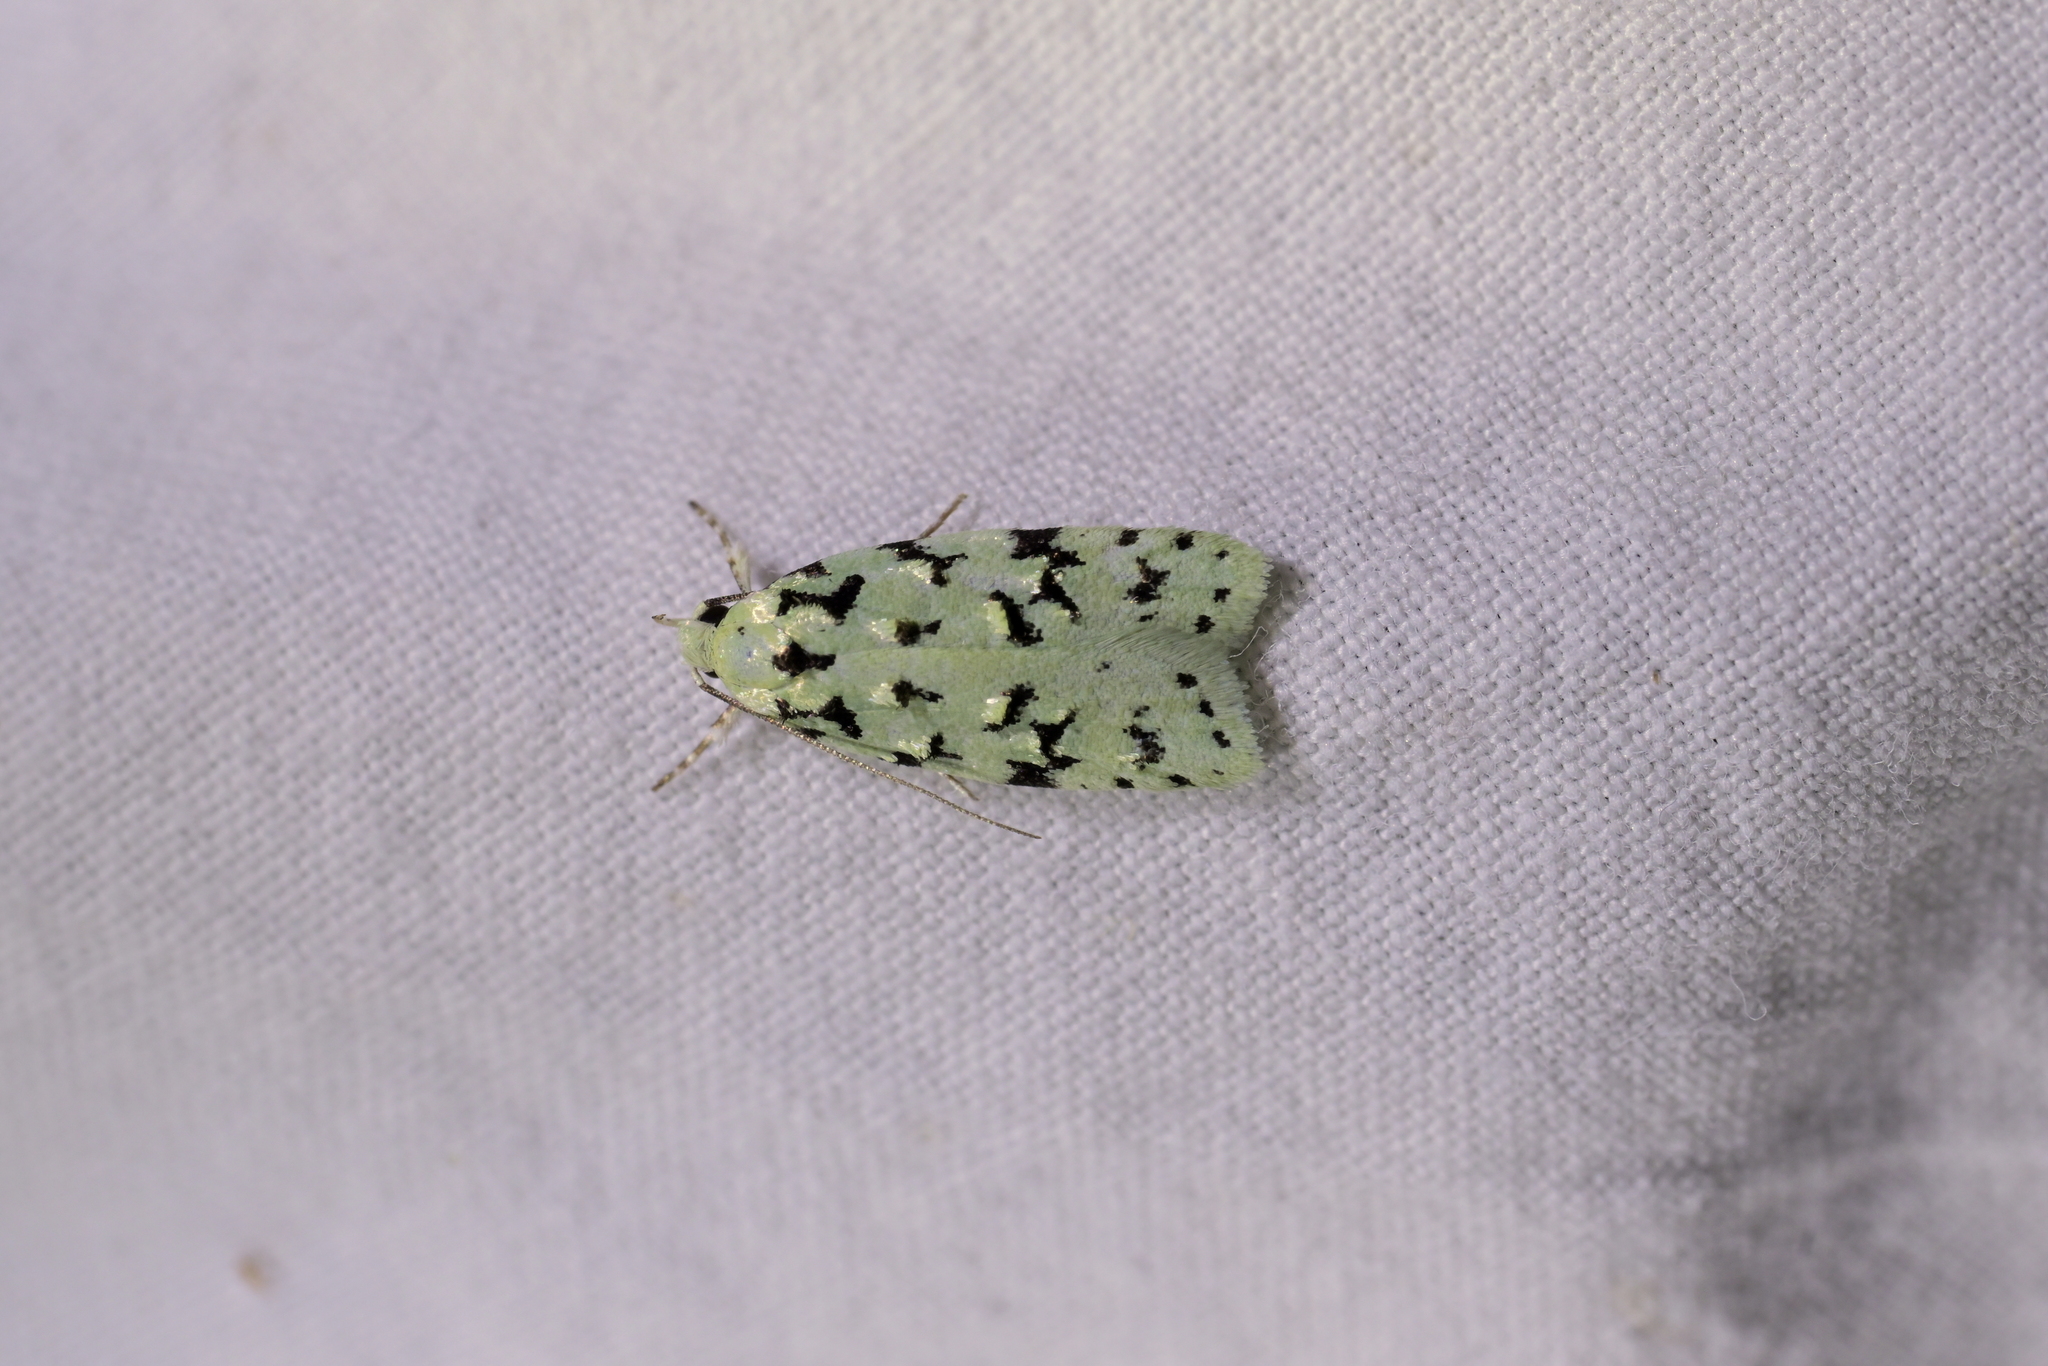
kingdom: Animalia
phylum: Arthropoda
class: Insecta
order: Lepidoptera
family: Oecophoridae
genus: Izatha
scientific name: Izatha peroneanella
